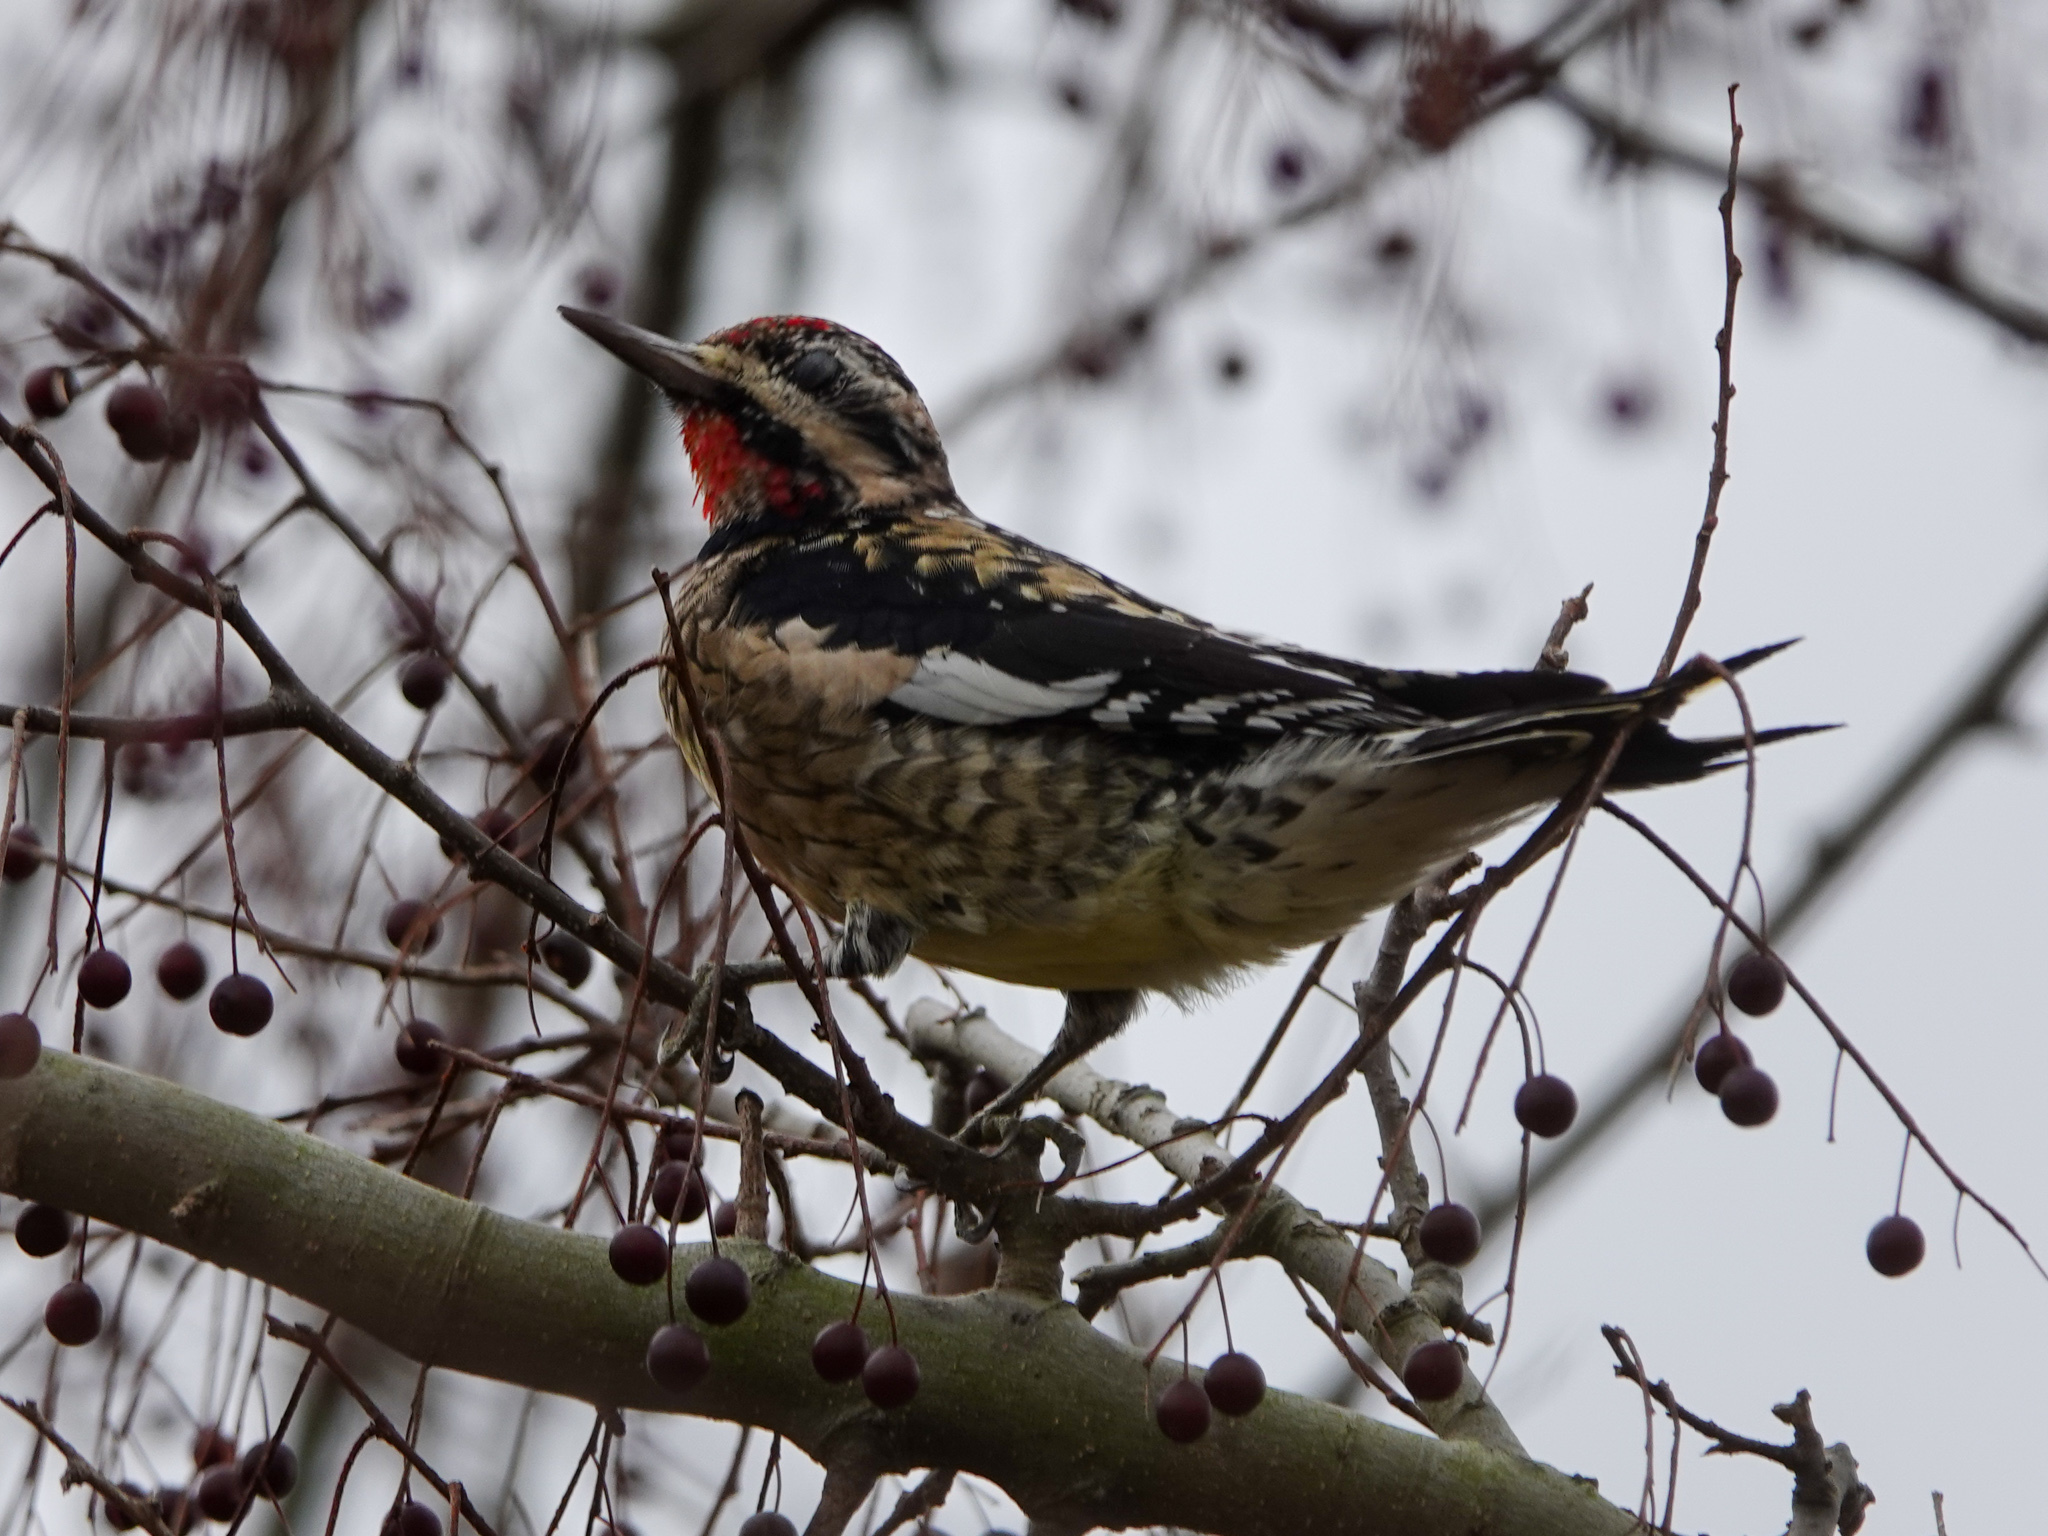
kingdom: Animalia
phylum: Chordata
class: Aves
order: Piciformes
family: Picidae
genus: Sphyrapicus
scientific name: Sphyrapicus varius
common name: Yellow-bellied sapsucker
